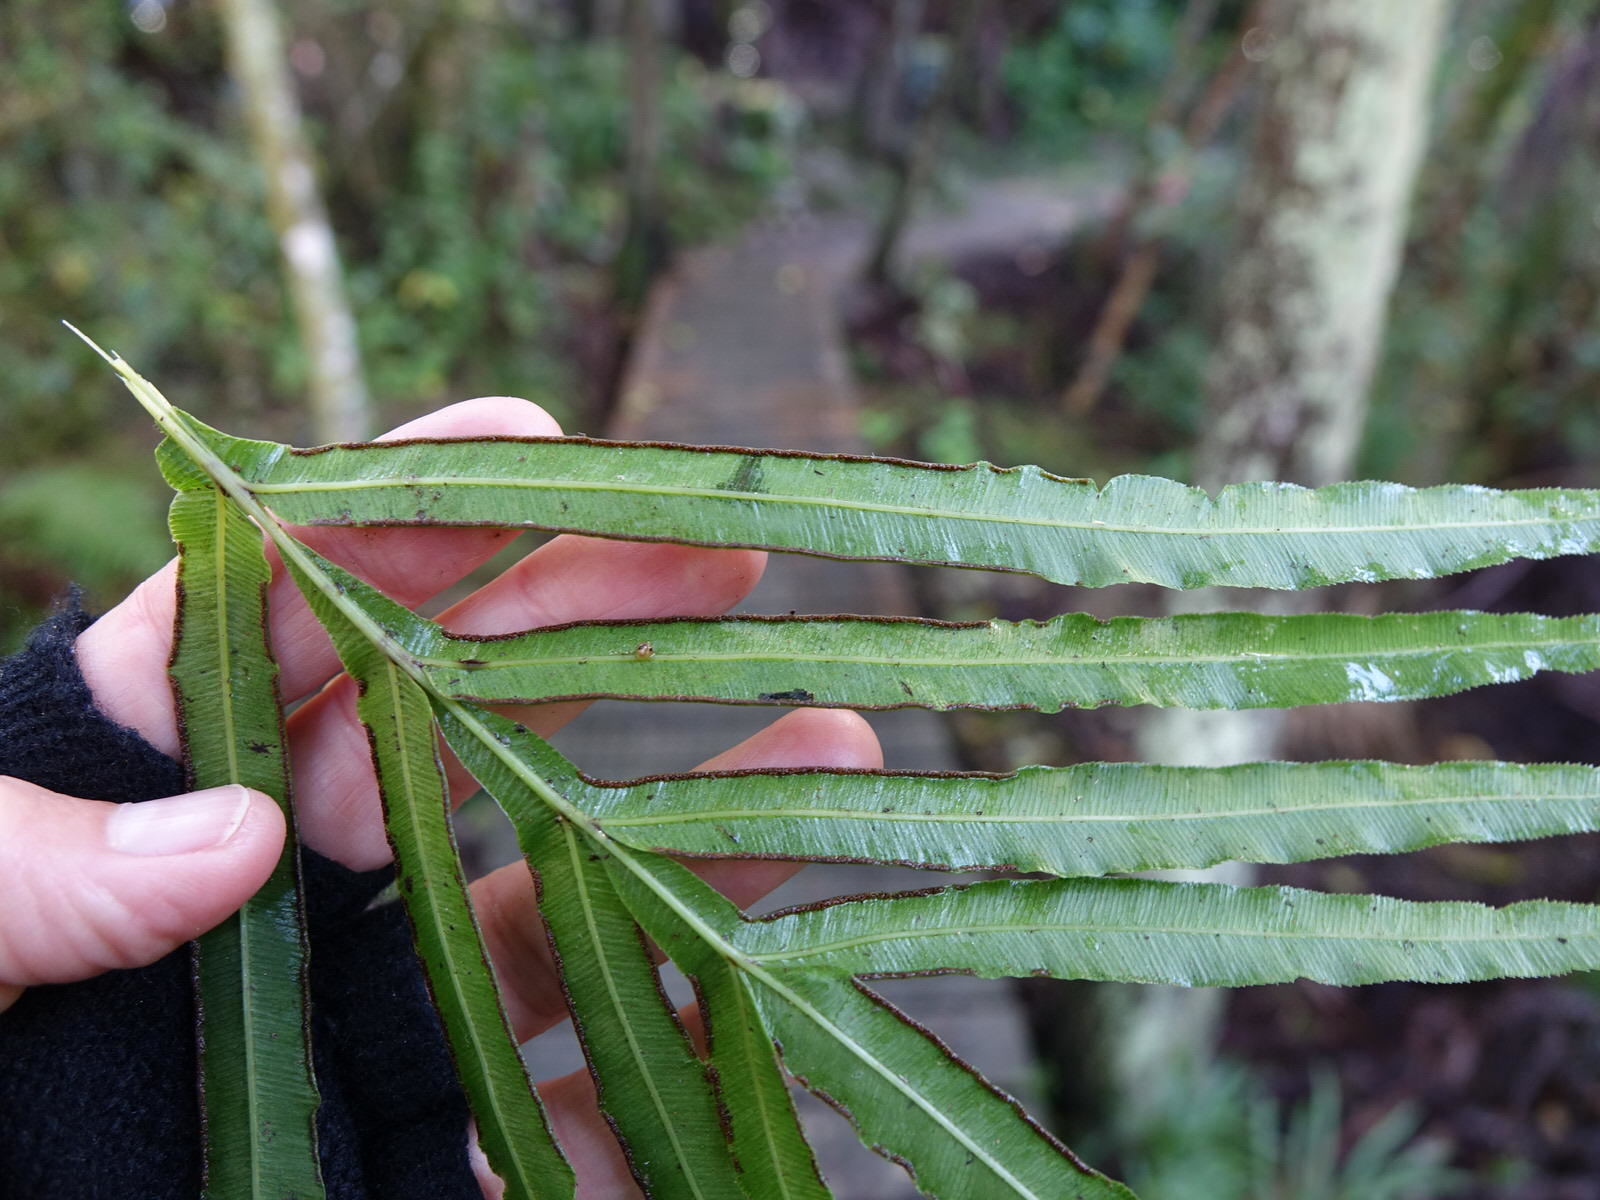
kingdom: Plantae
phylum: Tracheophyta
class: Polypodiopsida
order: Polypodiales
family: Pteridaceae
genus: Pteris
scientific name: Pteris cretica
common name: Ribbon fern
